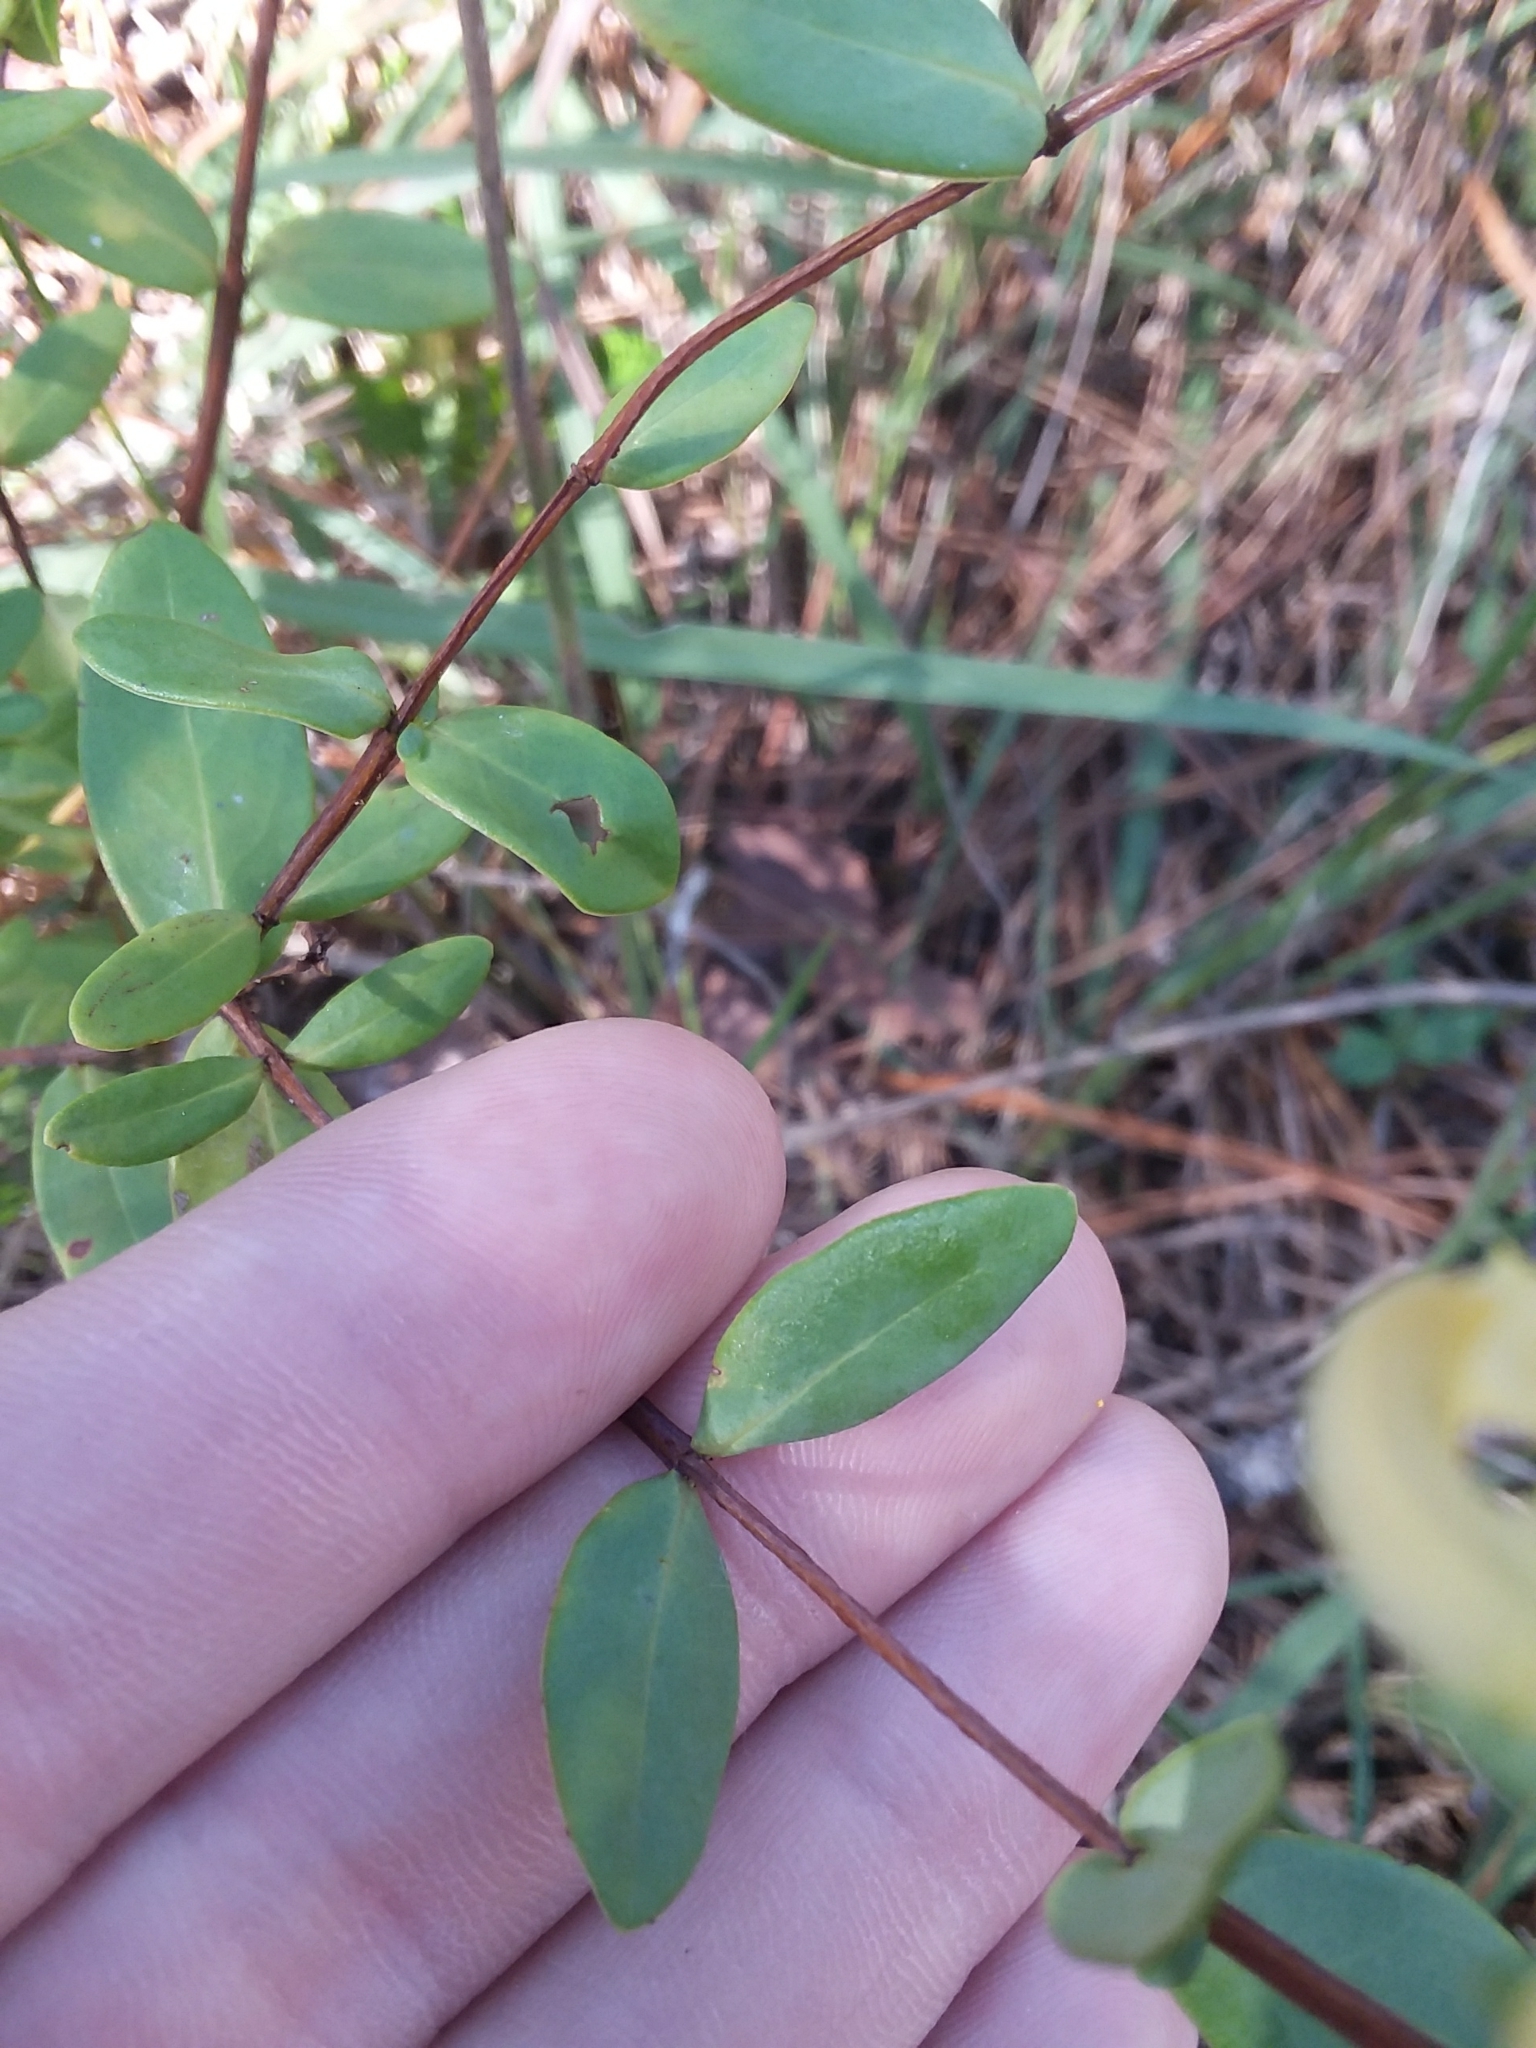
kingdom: Plantae
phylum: Tracheophyta
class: Magnoliopsida
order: Malpighiales
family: Hypericaceae
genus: Hypericum
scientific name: Hypericum crux-andreae
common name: St.-peter's-wort
